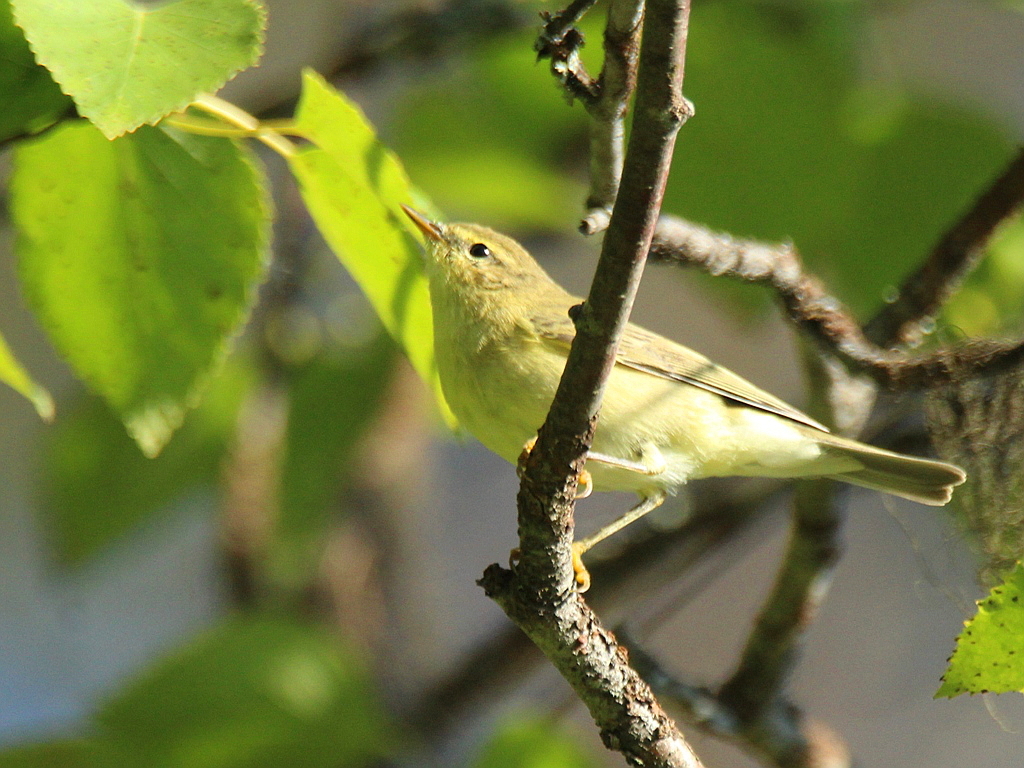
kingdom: Animalia
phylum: Chordata
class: Aves
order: Passeriformes
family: Phylloscopidae
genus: Phylloscopus
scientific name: Phylloscopus trochilus
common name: Willow warbler
